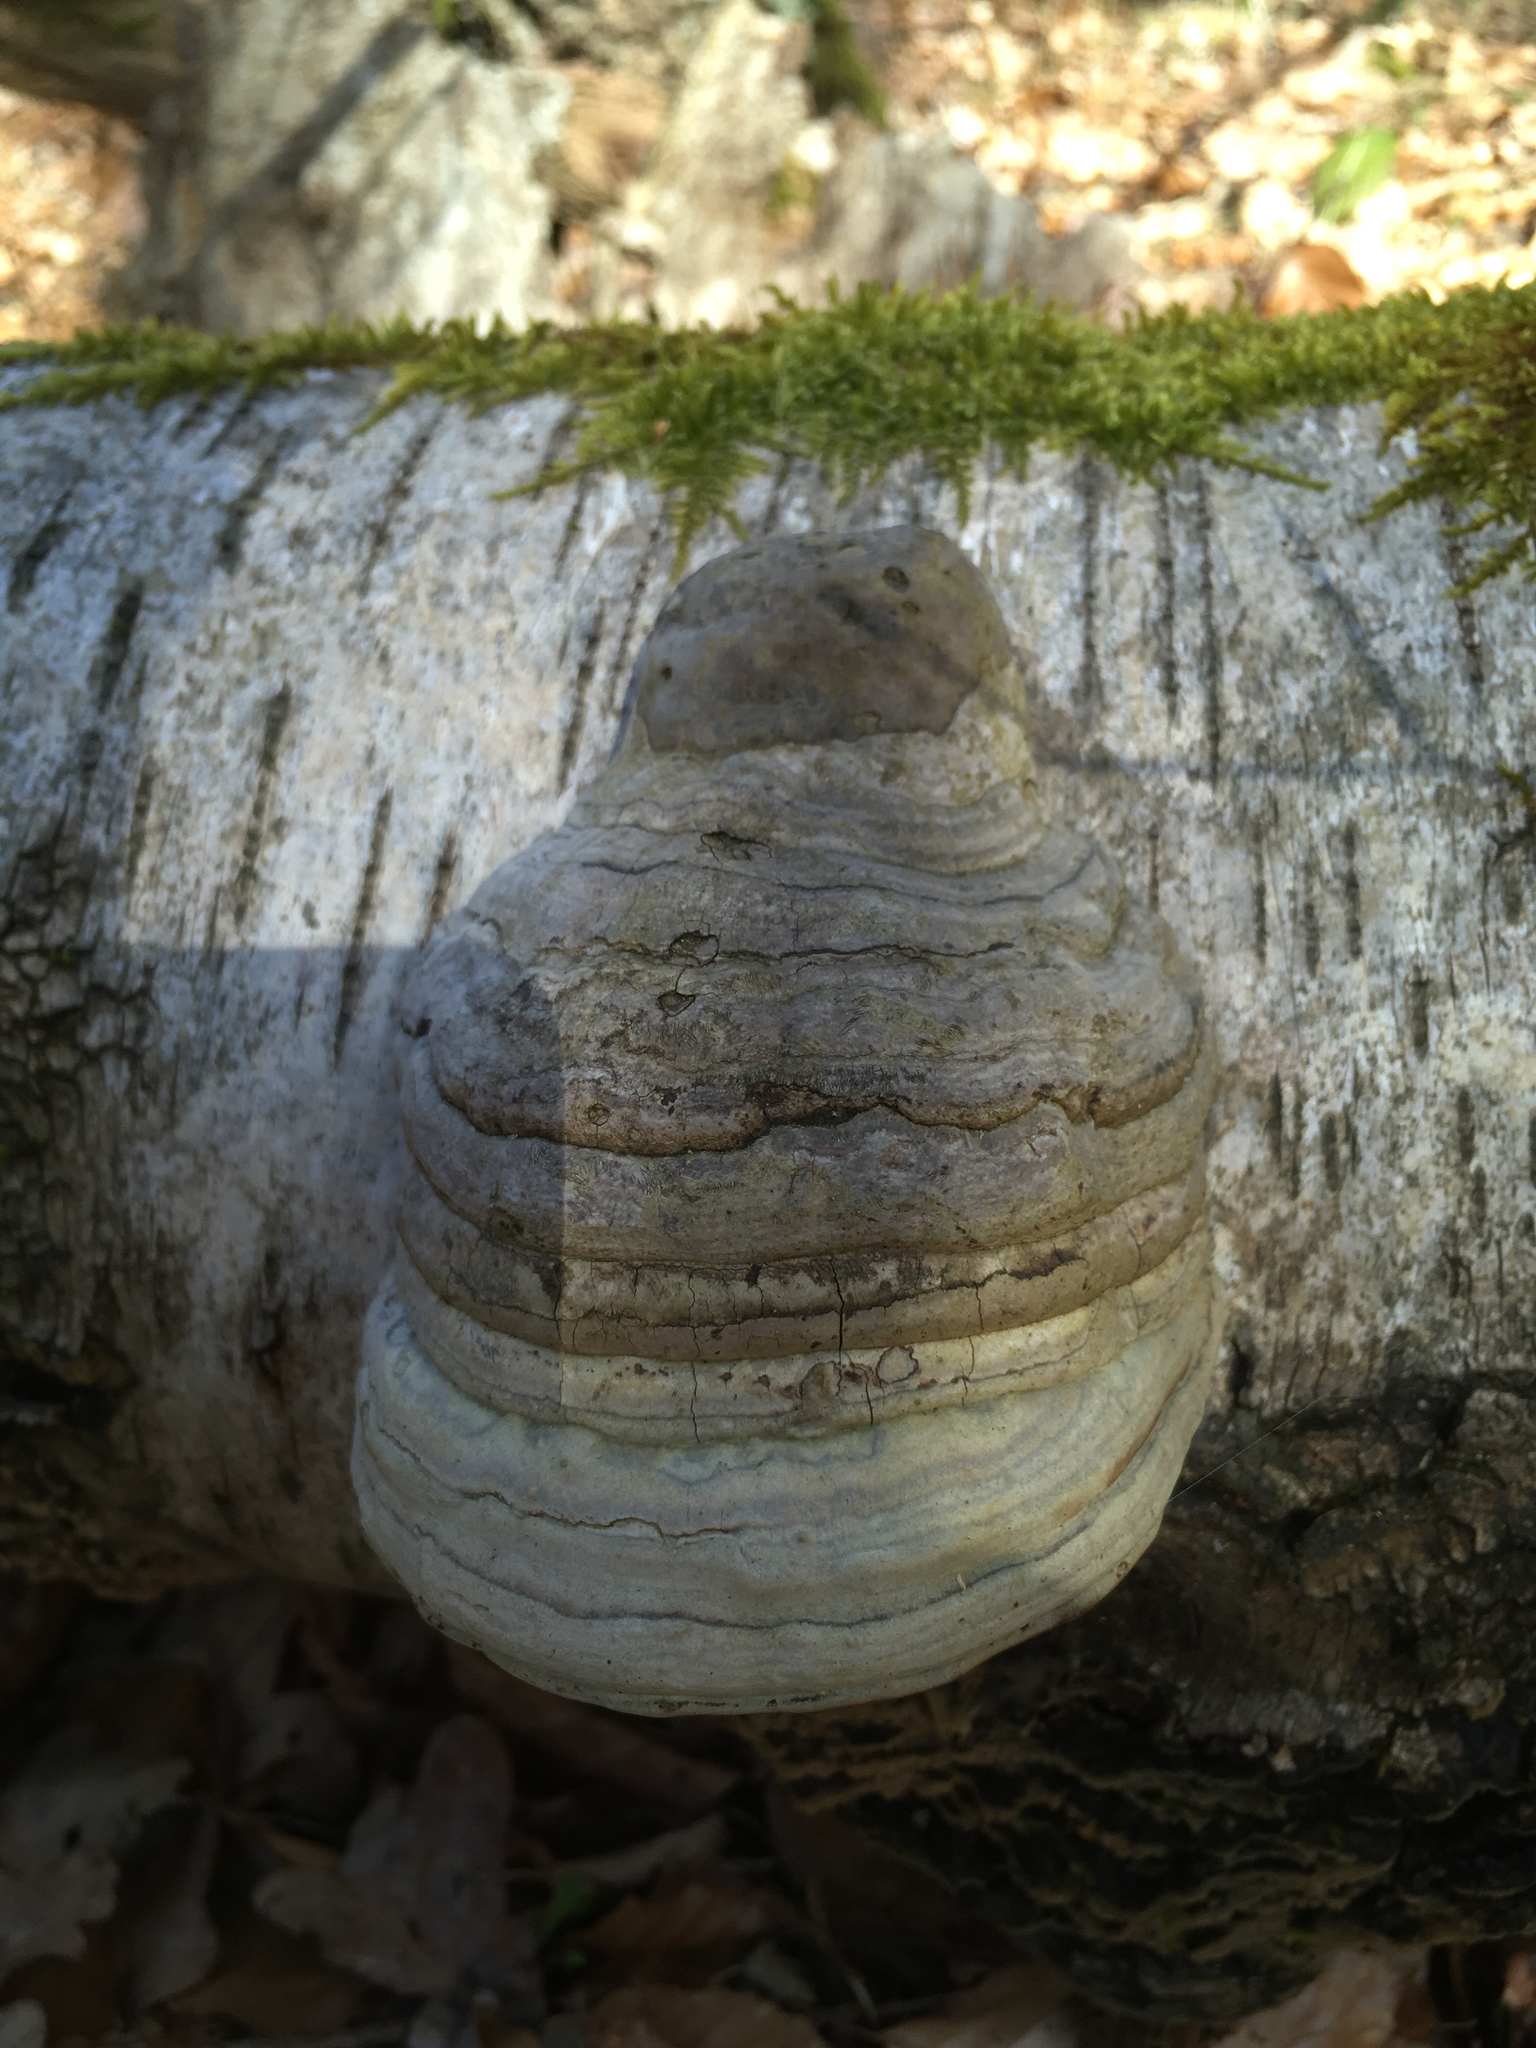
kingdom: Fungi
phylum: Basidiomycota
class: Agaricomycetes
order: Polyporales
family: Polyporaceae
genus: Fomes
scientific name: Fomes fomentarius
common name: Hoof fungus
